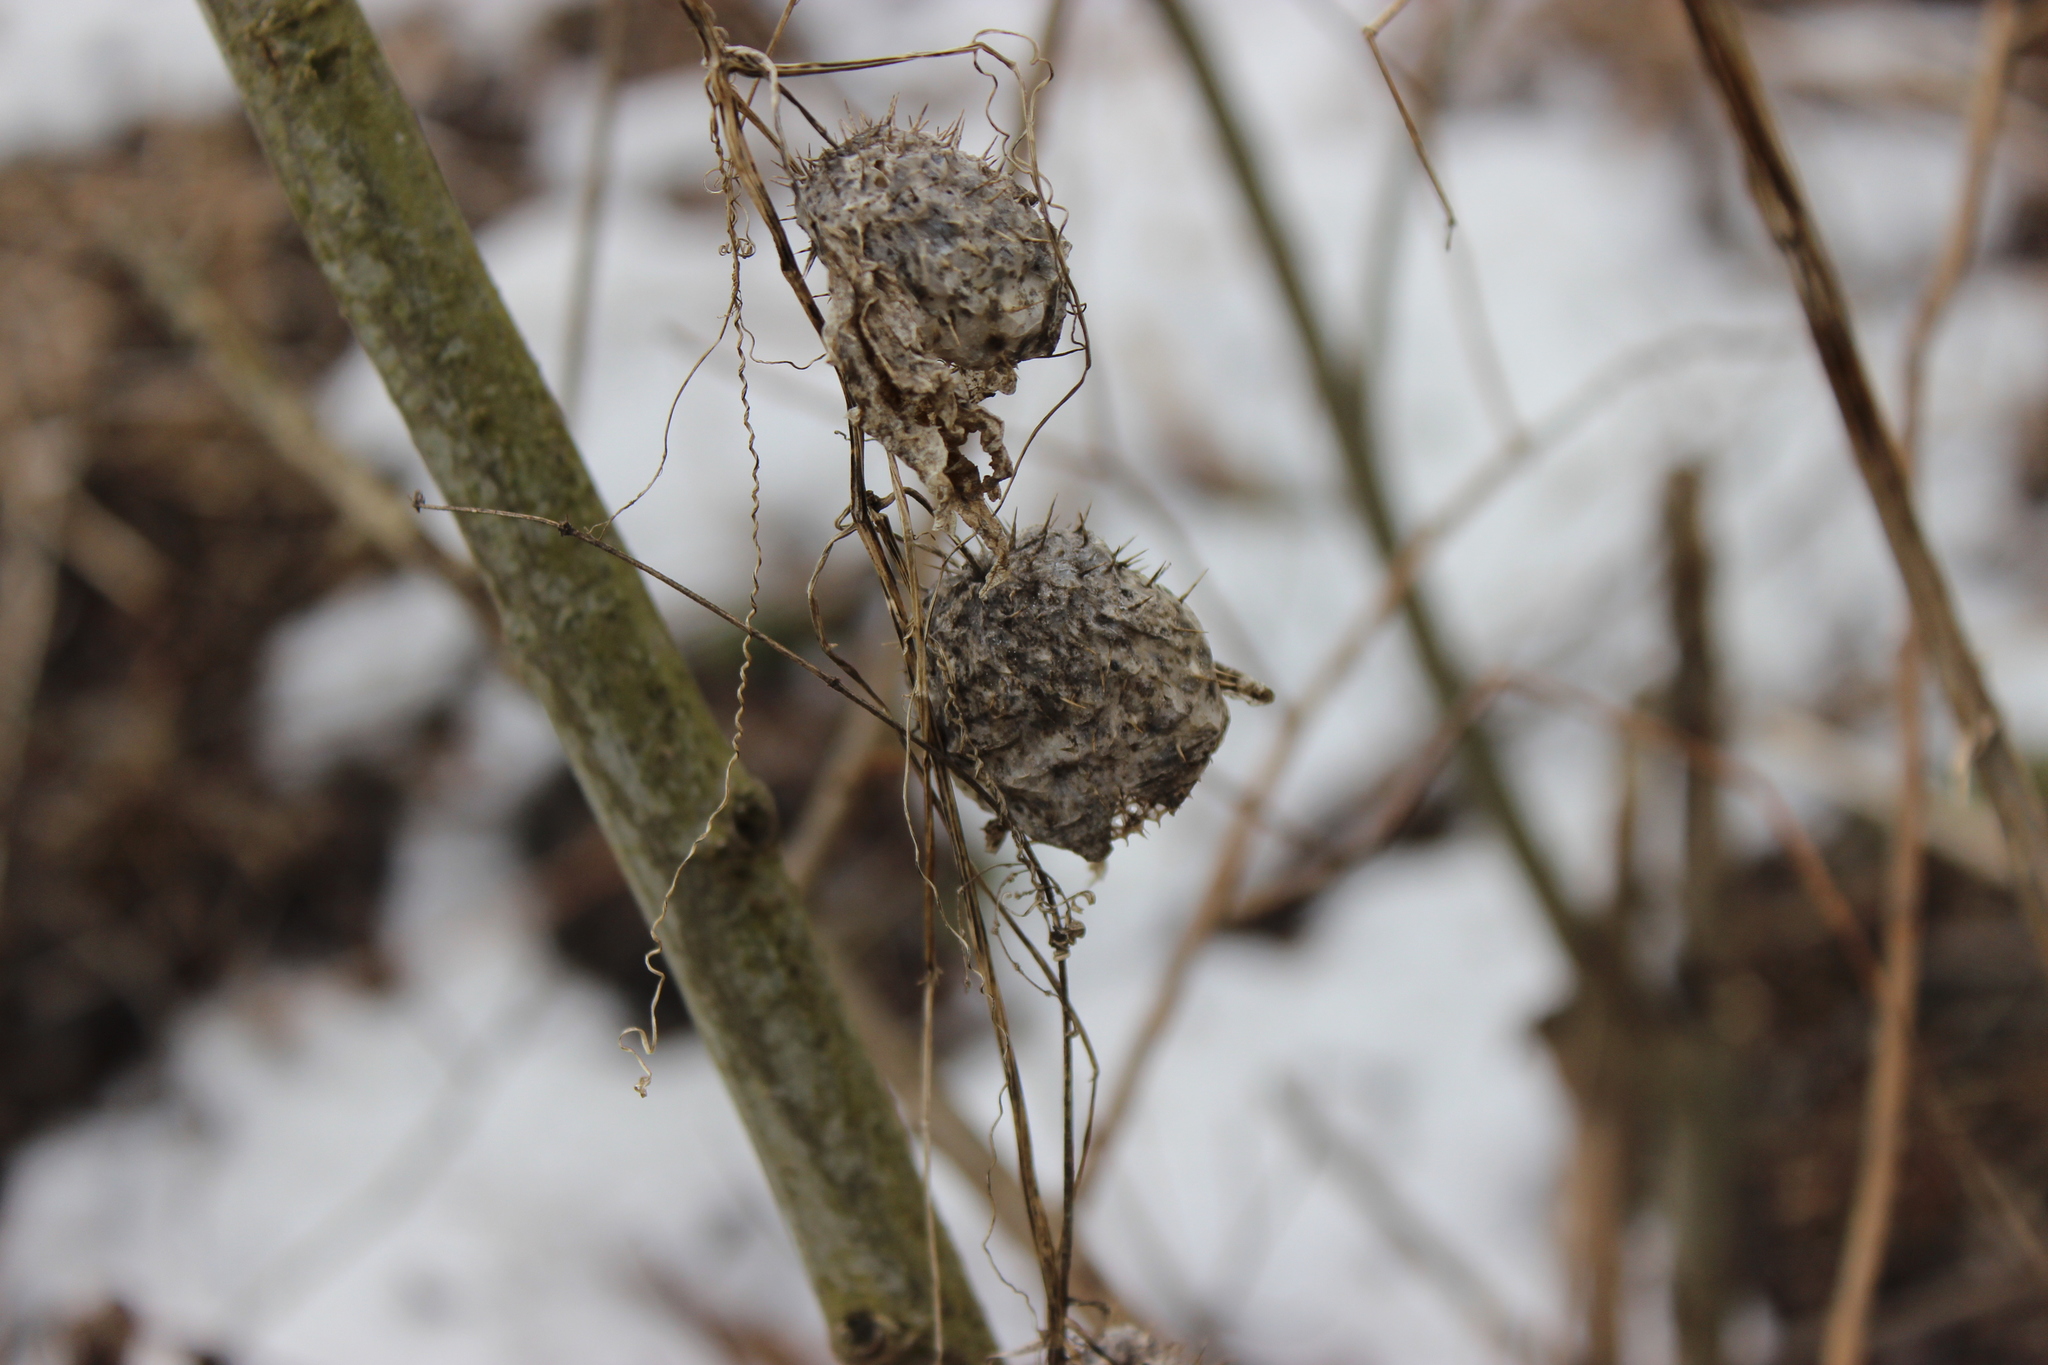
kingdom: Plantae
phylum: Tracheophyta
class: Magnoliopsida
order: Cucurbitales
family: Cucurbitaceae
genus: Echinocystis
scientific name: Echinocystis lobata
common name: Wild cucumber
